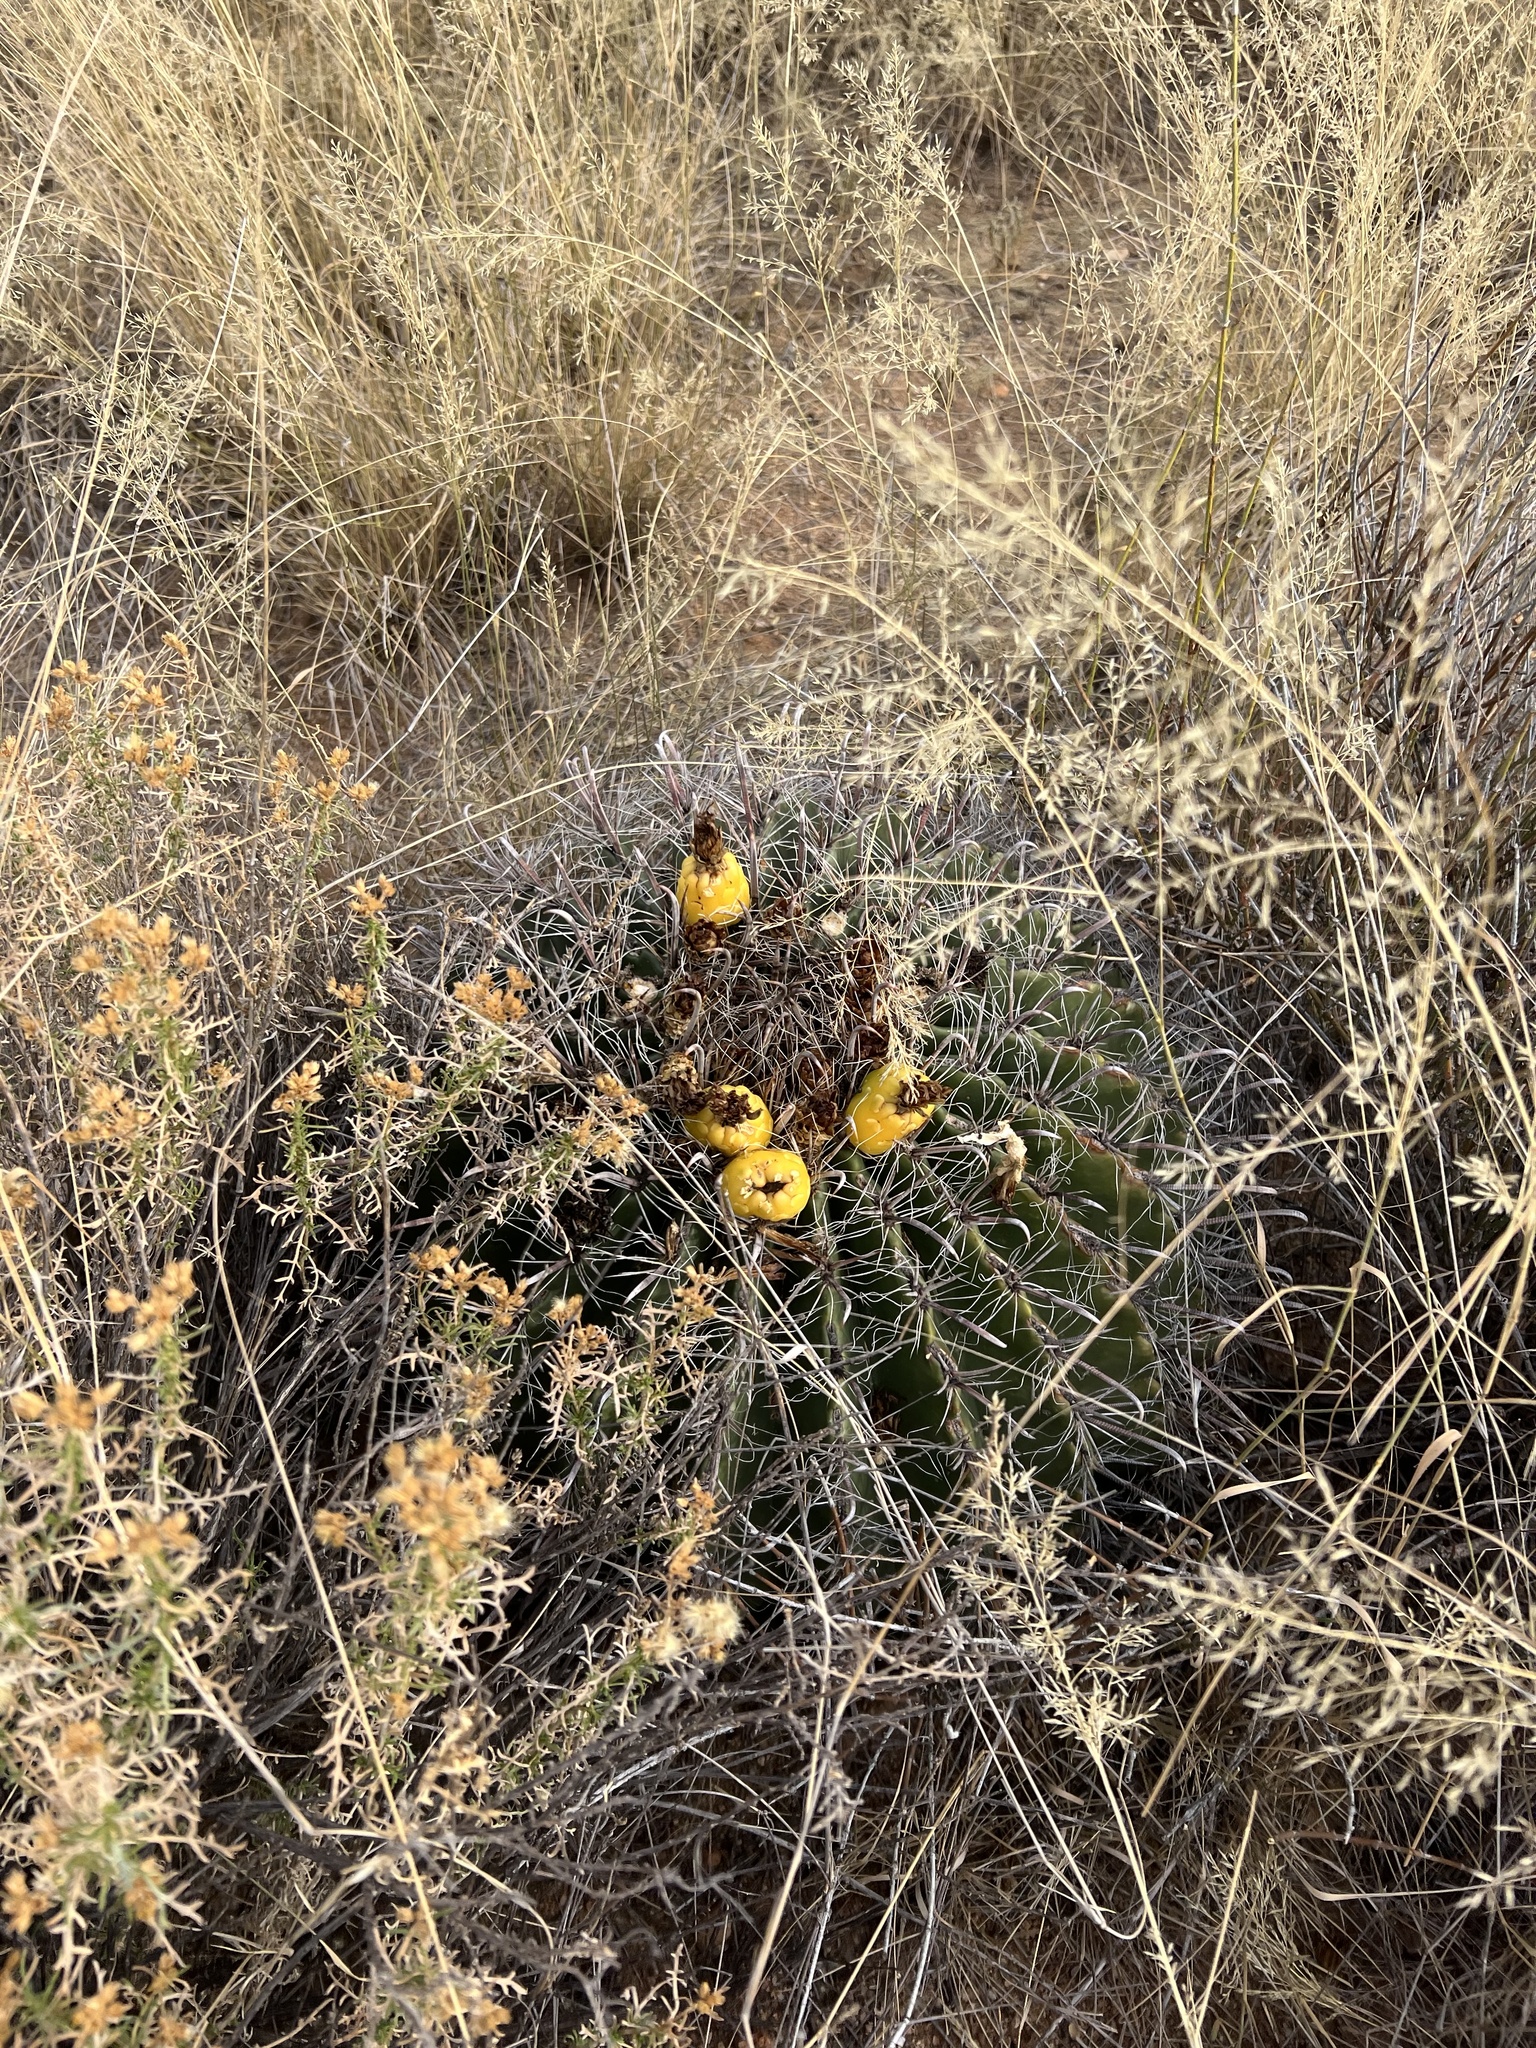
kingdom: Plantae
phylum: Tracheophyta
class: Magnoliopsida
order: Caryophyllales
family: Cactaceae
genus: Ferocactus
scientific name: Ferocactus wislizeni
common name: Candy barrel cactus
